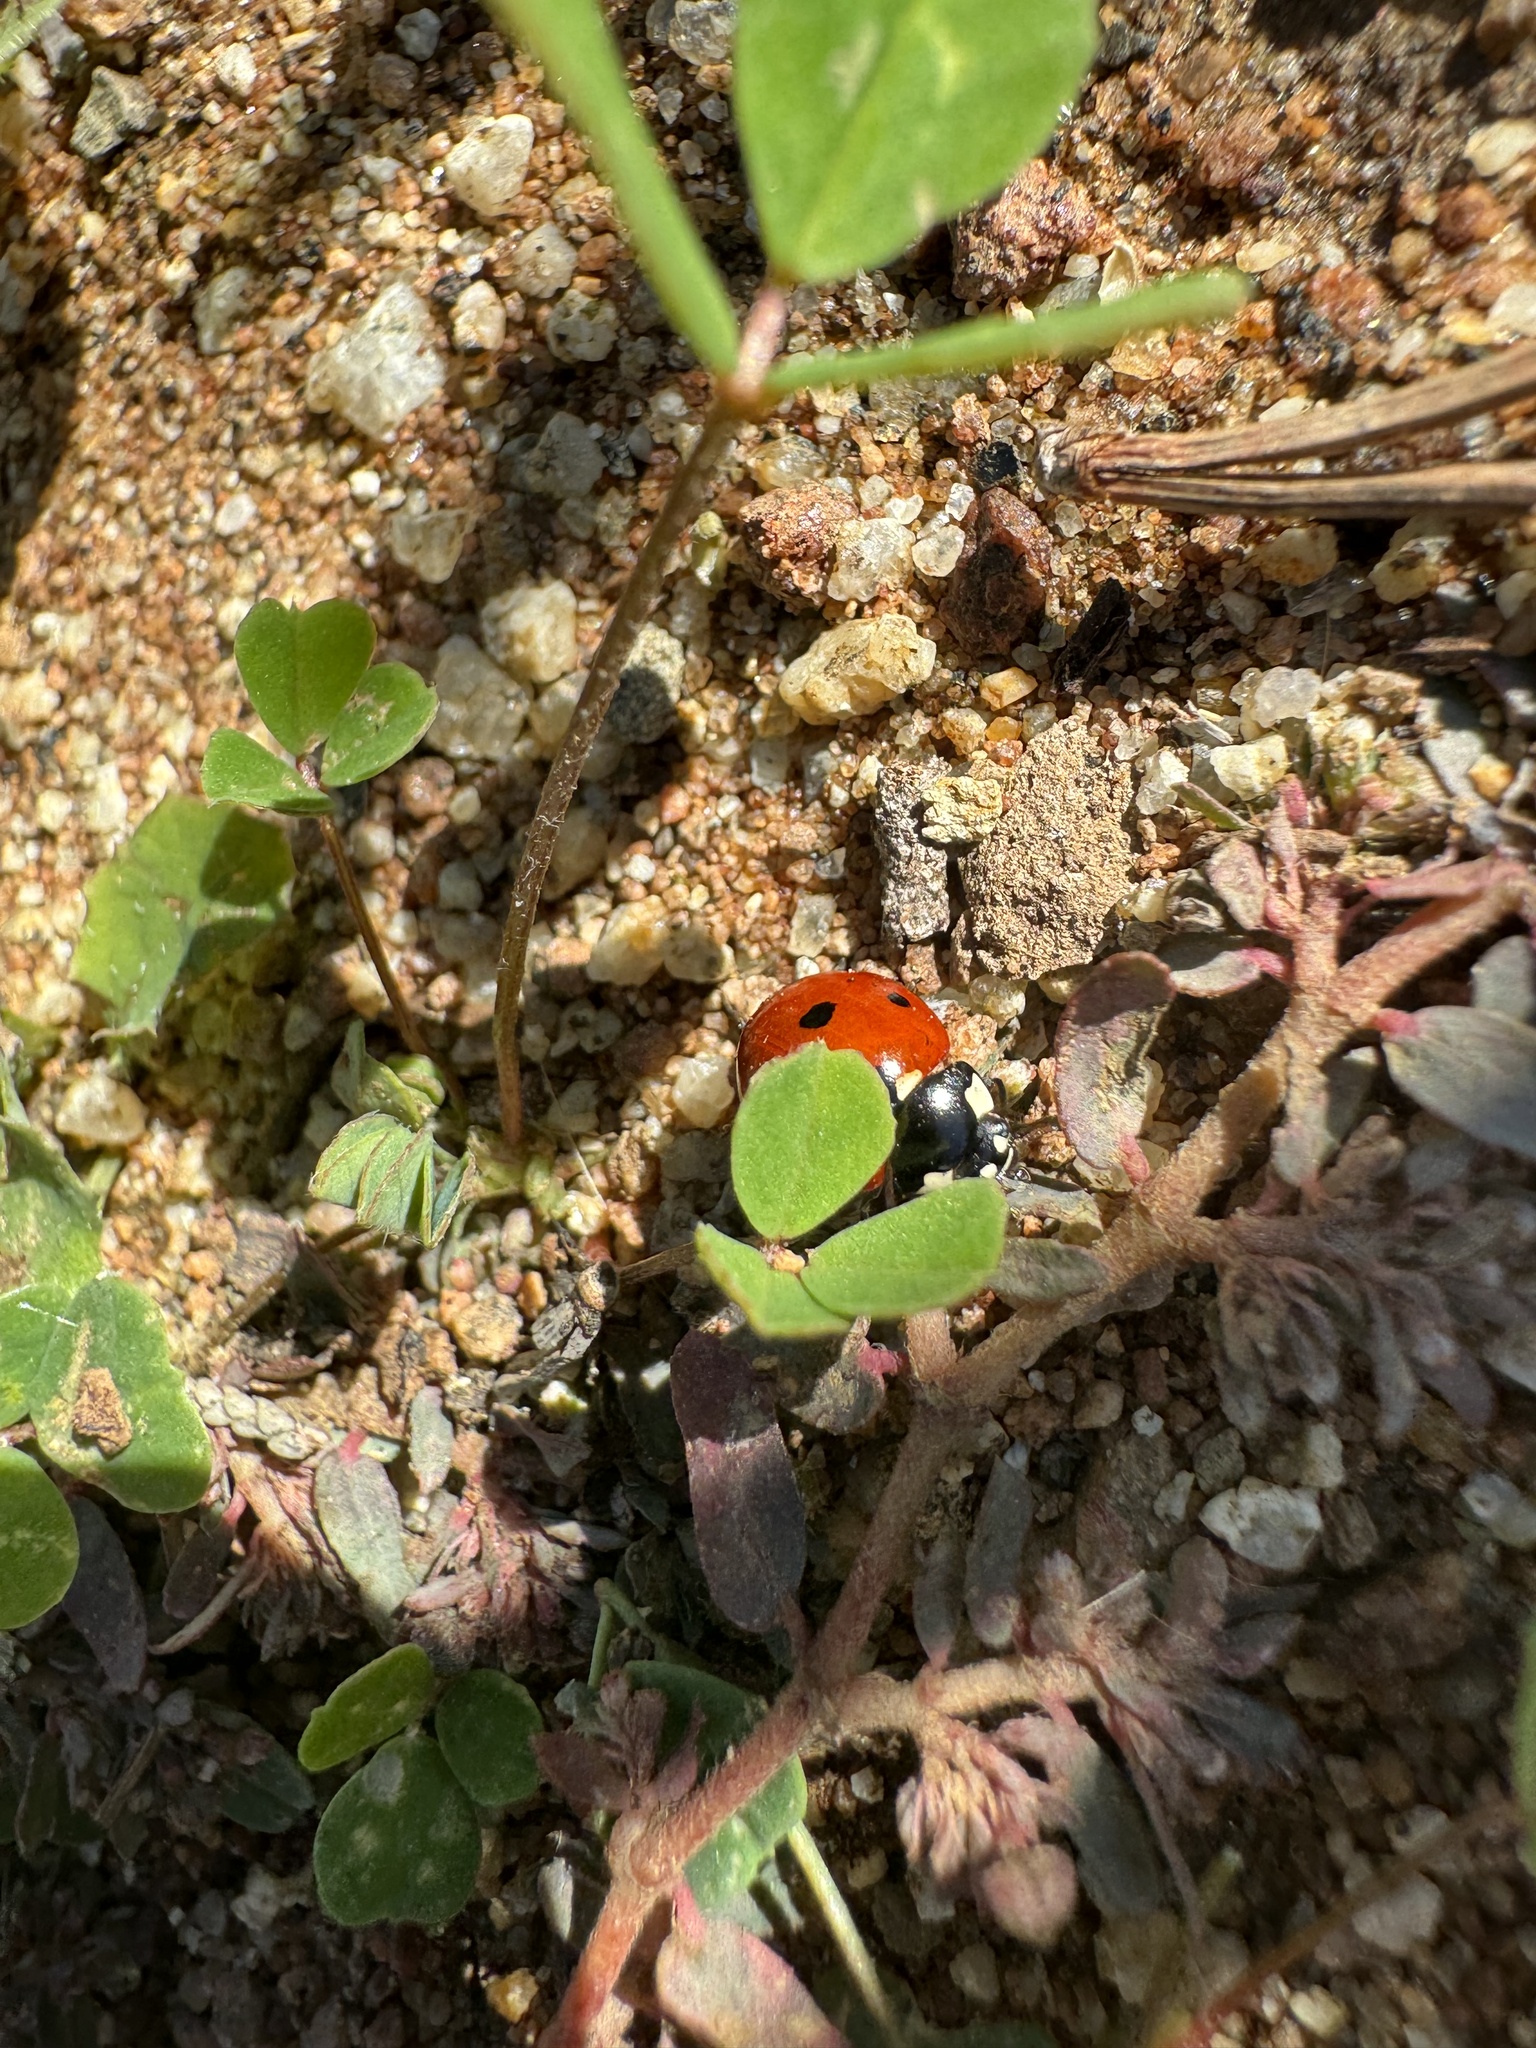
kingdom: Animalia
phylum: Arthropoda
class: Insecta
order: Coleoptera
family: Coccinellidae
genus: Coccinella
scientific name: Coccinella septempunctata
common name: Sevenspotted lady beetle
